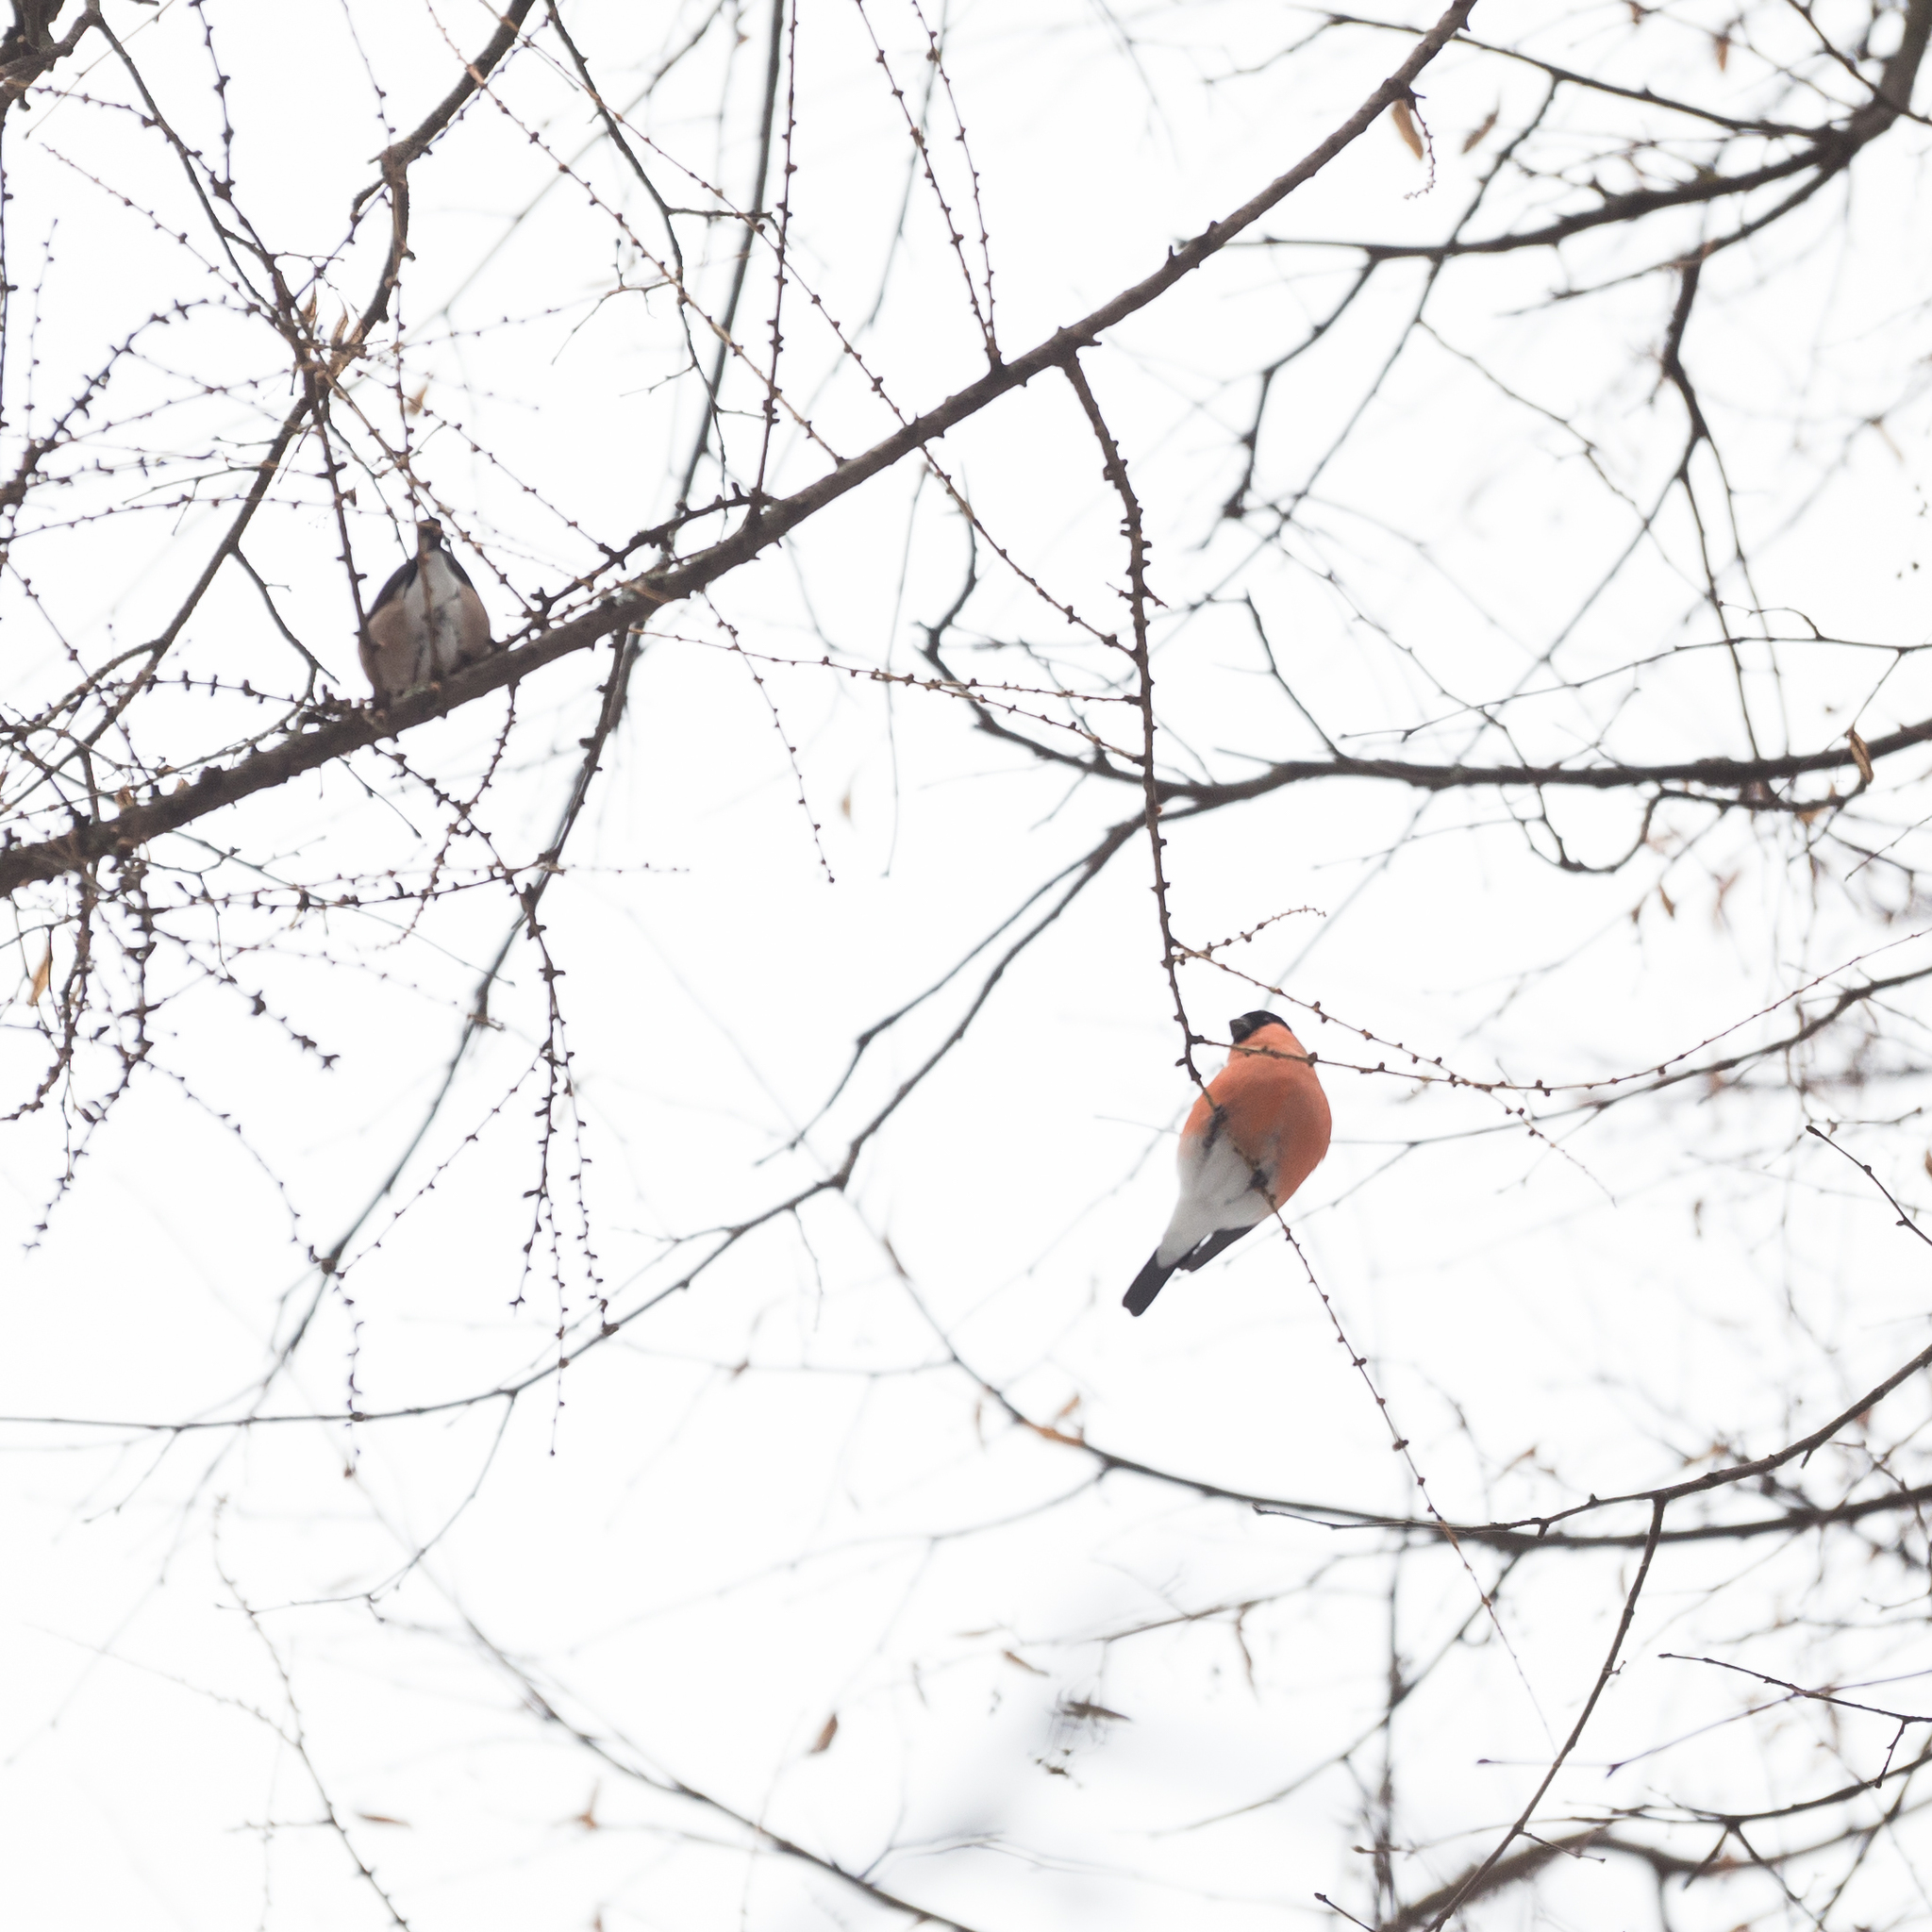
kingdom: Animalia
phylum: Chordata
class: Aves
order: Passeriformes
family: Fringillidae
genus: Pyrrhula
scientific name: Pyrrhula pyrrhula
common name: Eurasian bullfinch
